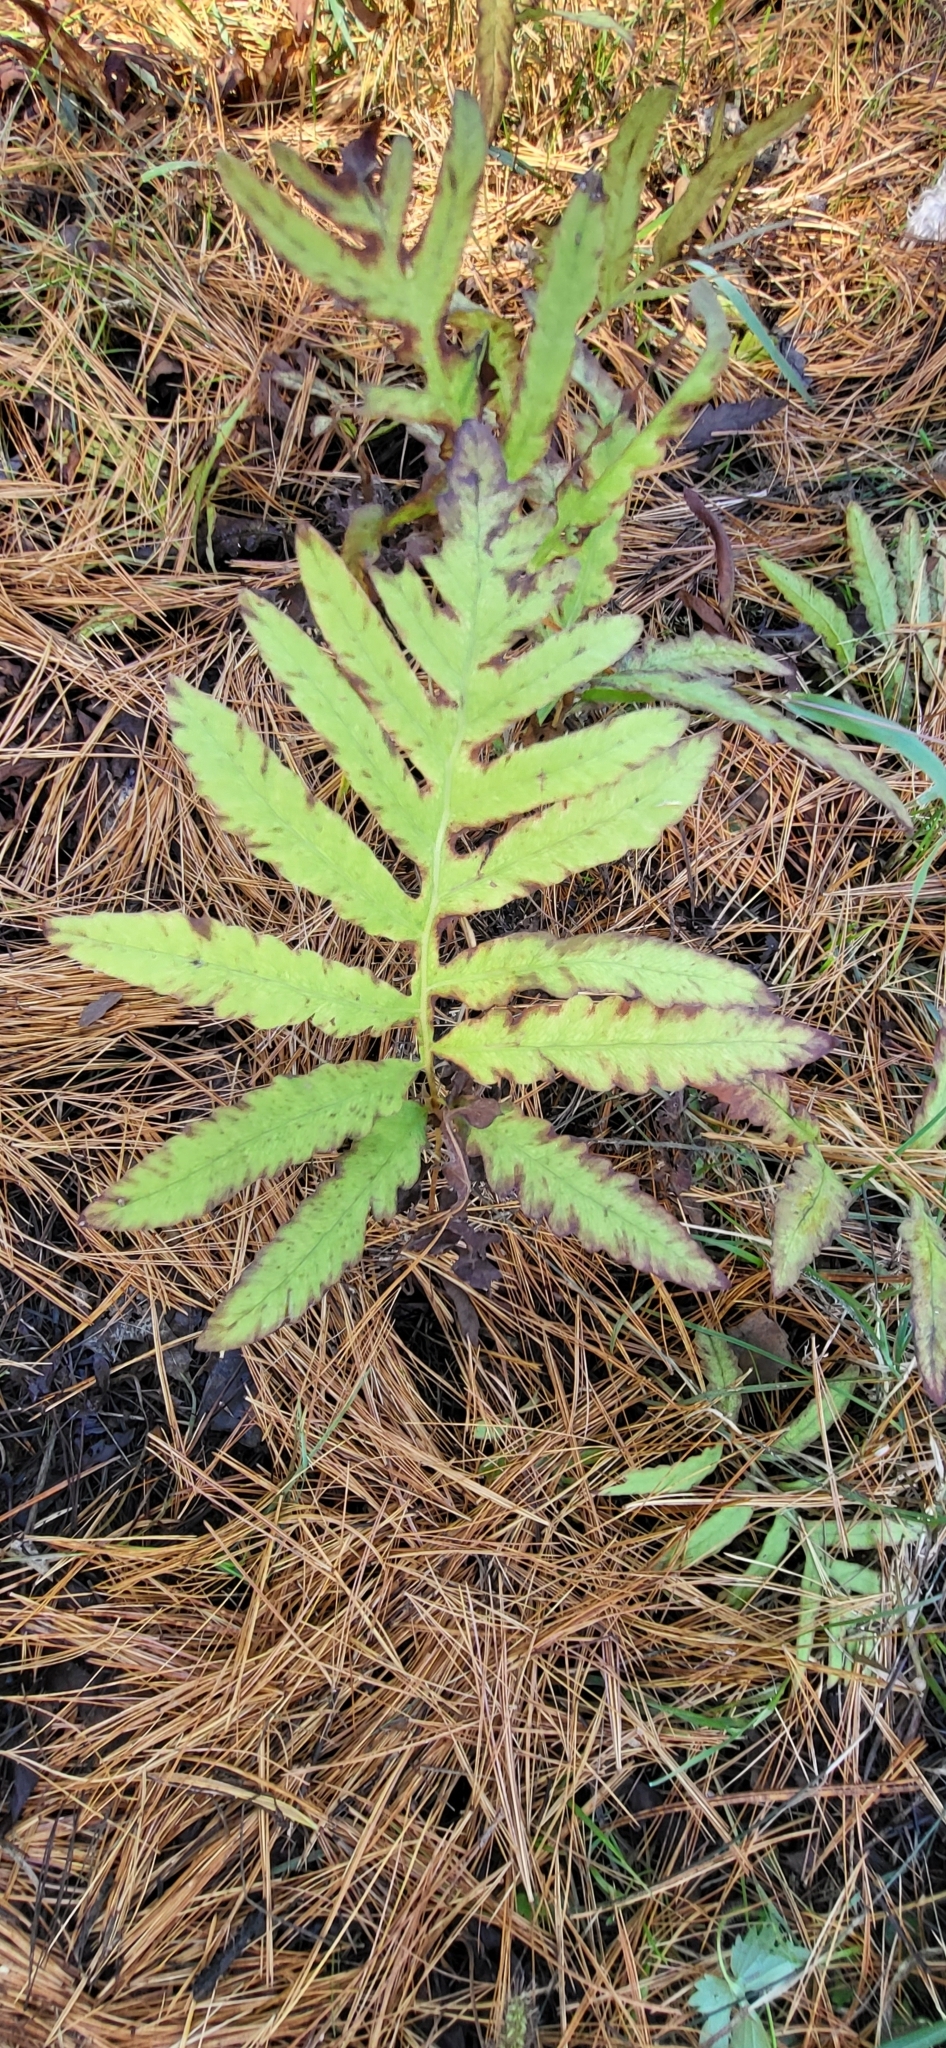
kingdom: Plantae
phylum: Tracheophyta
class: Polypodiopsida
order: Polypodiales
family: Onocleaceae
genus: Onoclea
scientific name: Onoclea sensibilis
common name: Sensitive fern
